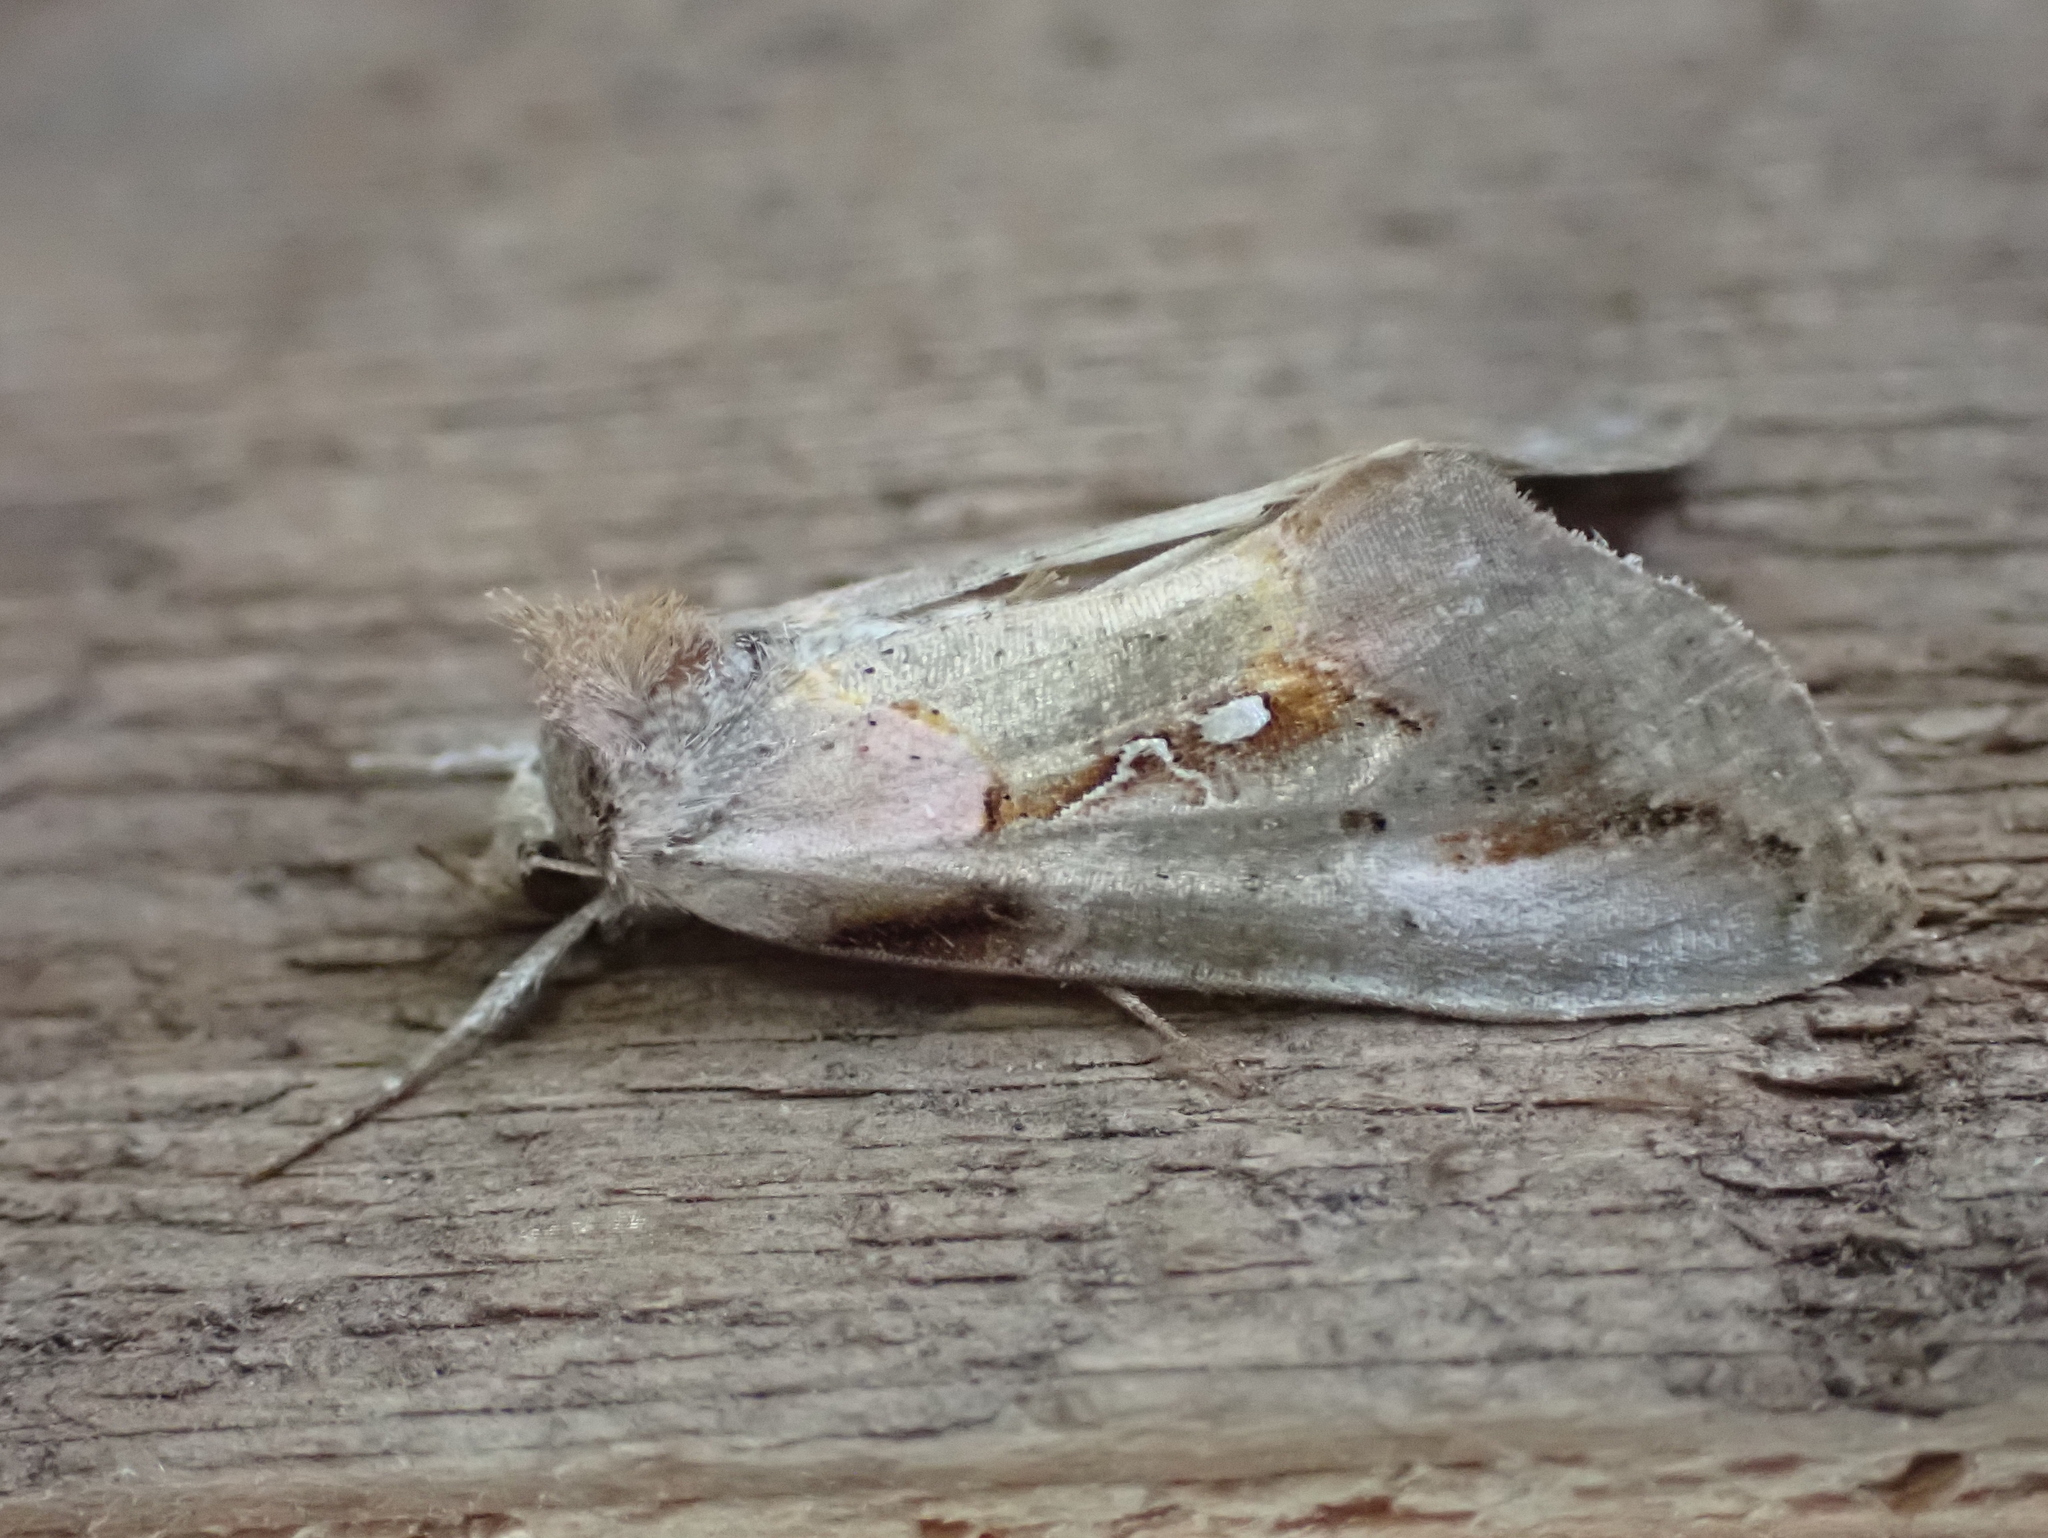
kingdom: Animalia
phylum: Arthropoda
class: Insecta
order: Lepidoptera
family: Noctuidae
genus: Eosphoropteryx
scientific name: Eosphoropteryx thyatyroides
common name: Pinkpatched looper moth
